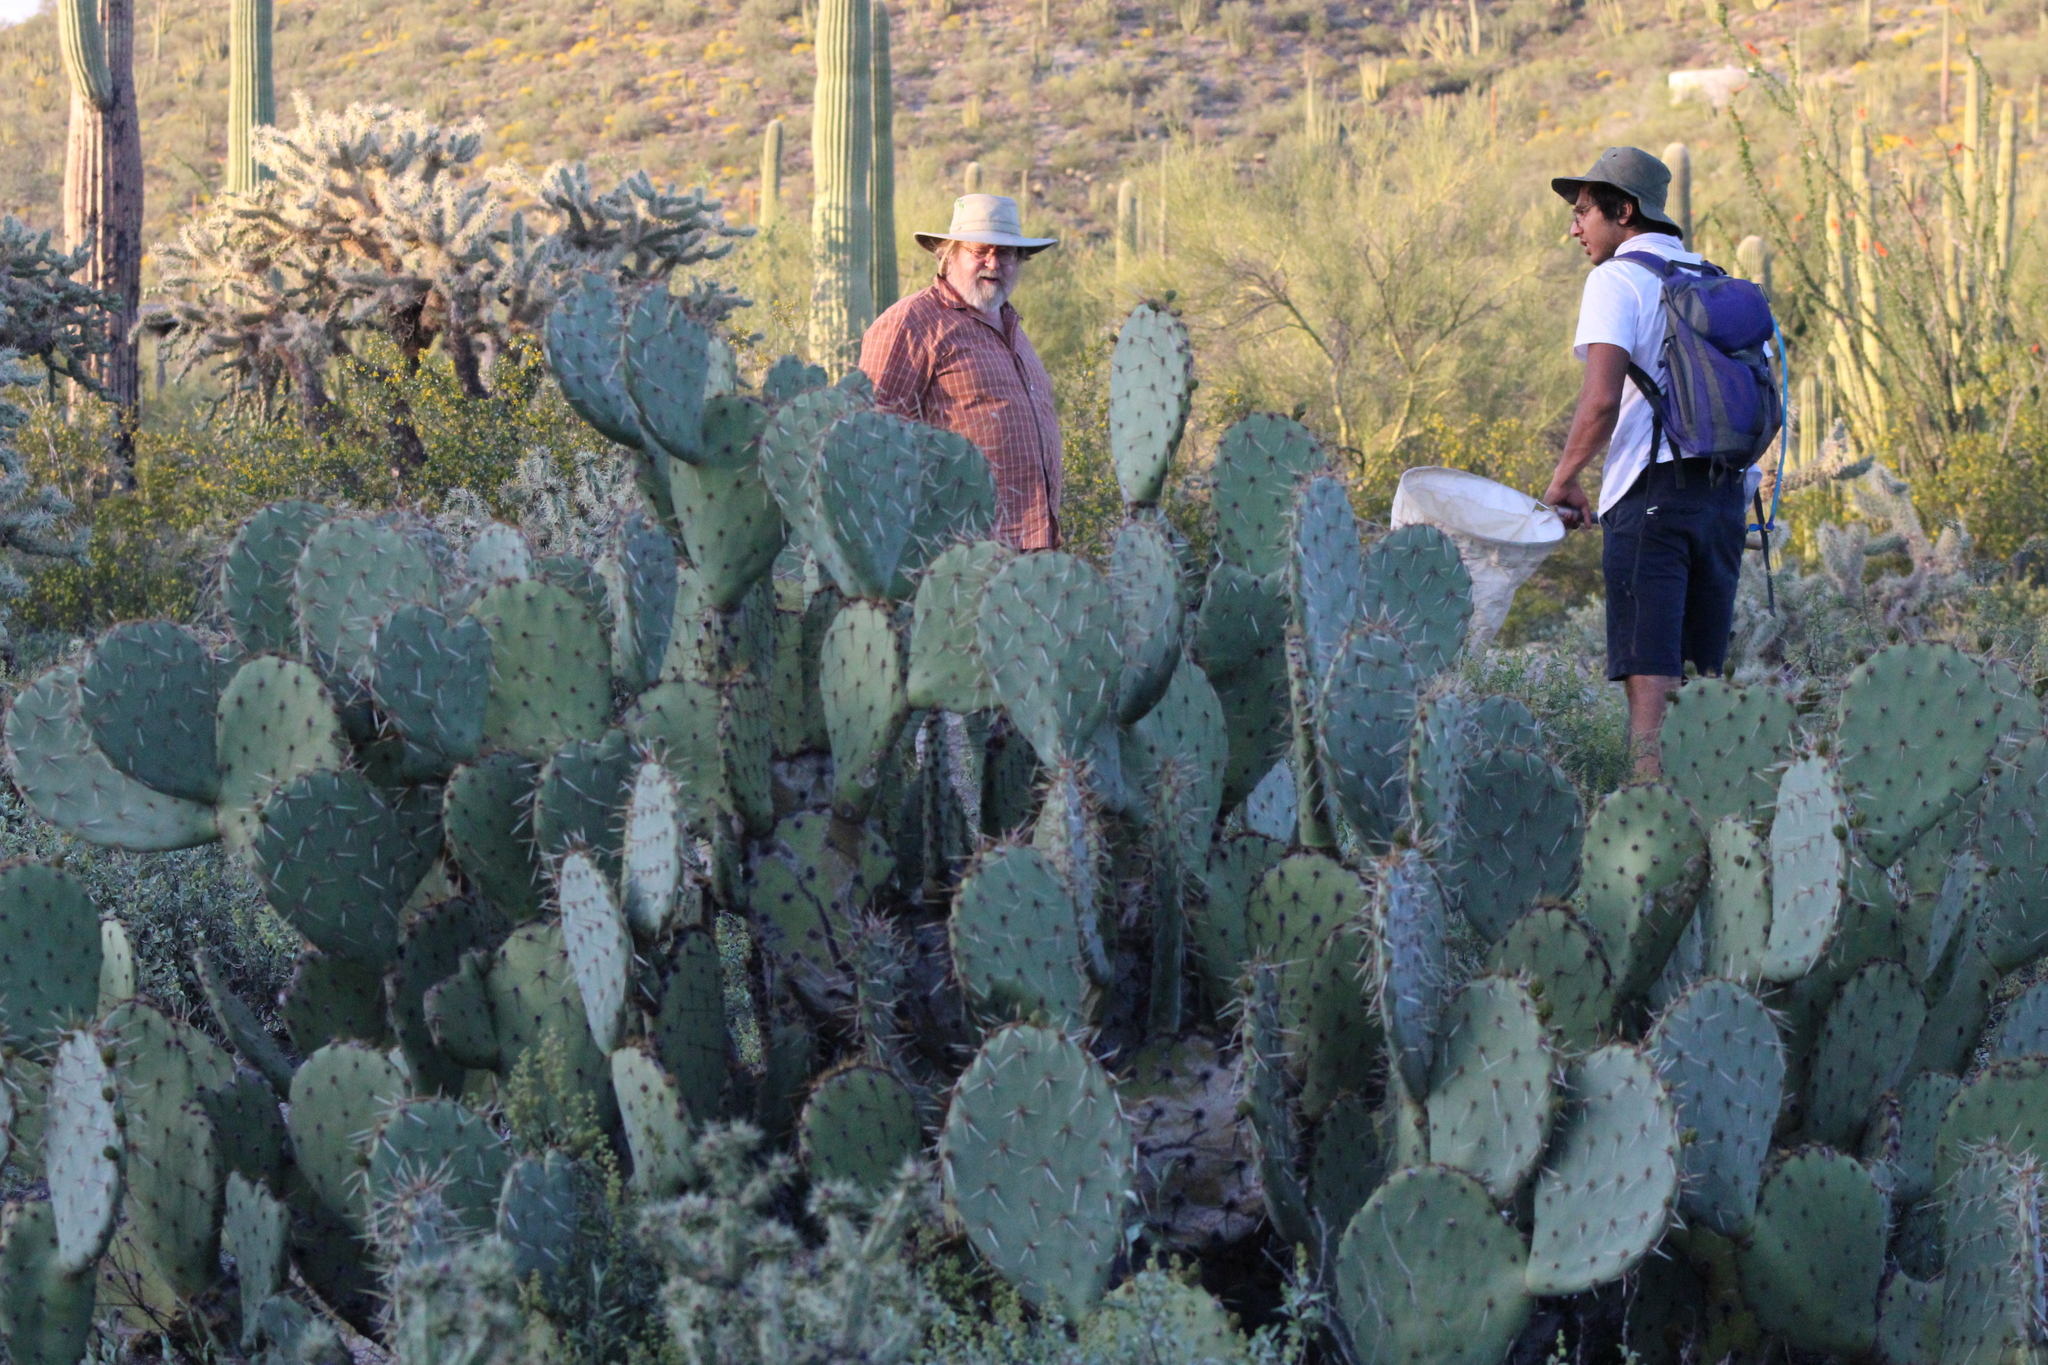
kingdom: Plantae
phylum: Tracheophyta
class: Magnoliopsida
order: Caryophyllales
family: Cactaceae
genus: Opuntia
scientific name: Opuntia engelmannii
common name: Cactus-apple
